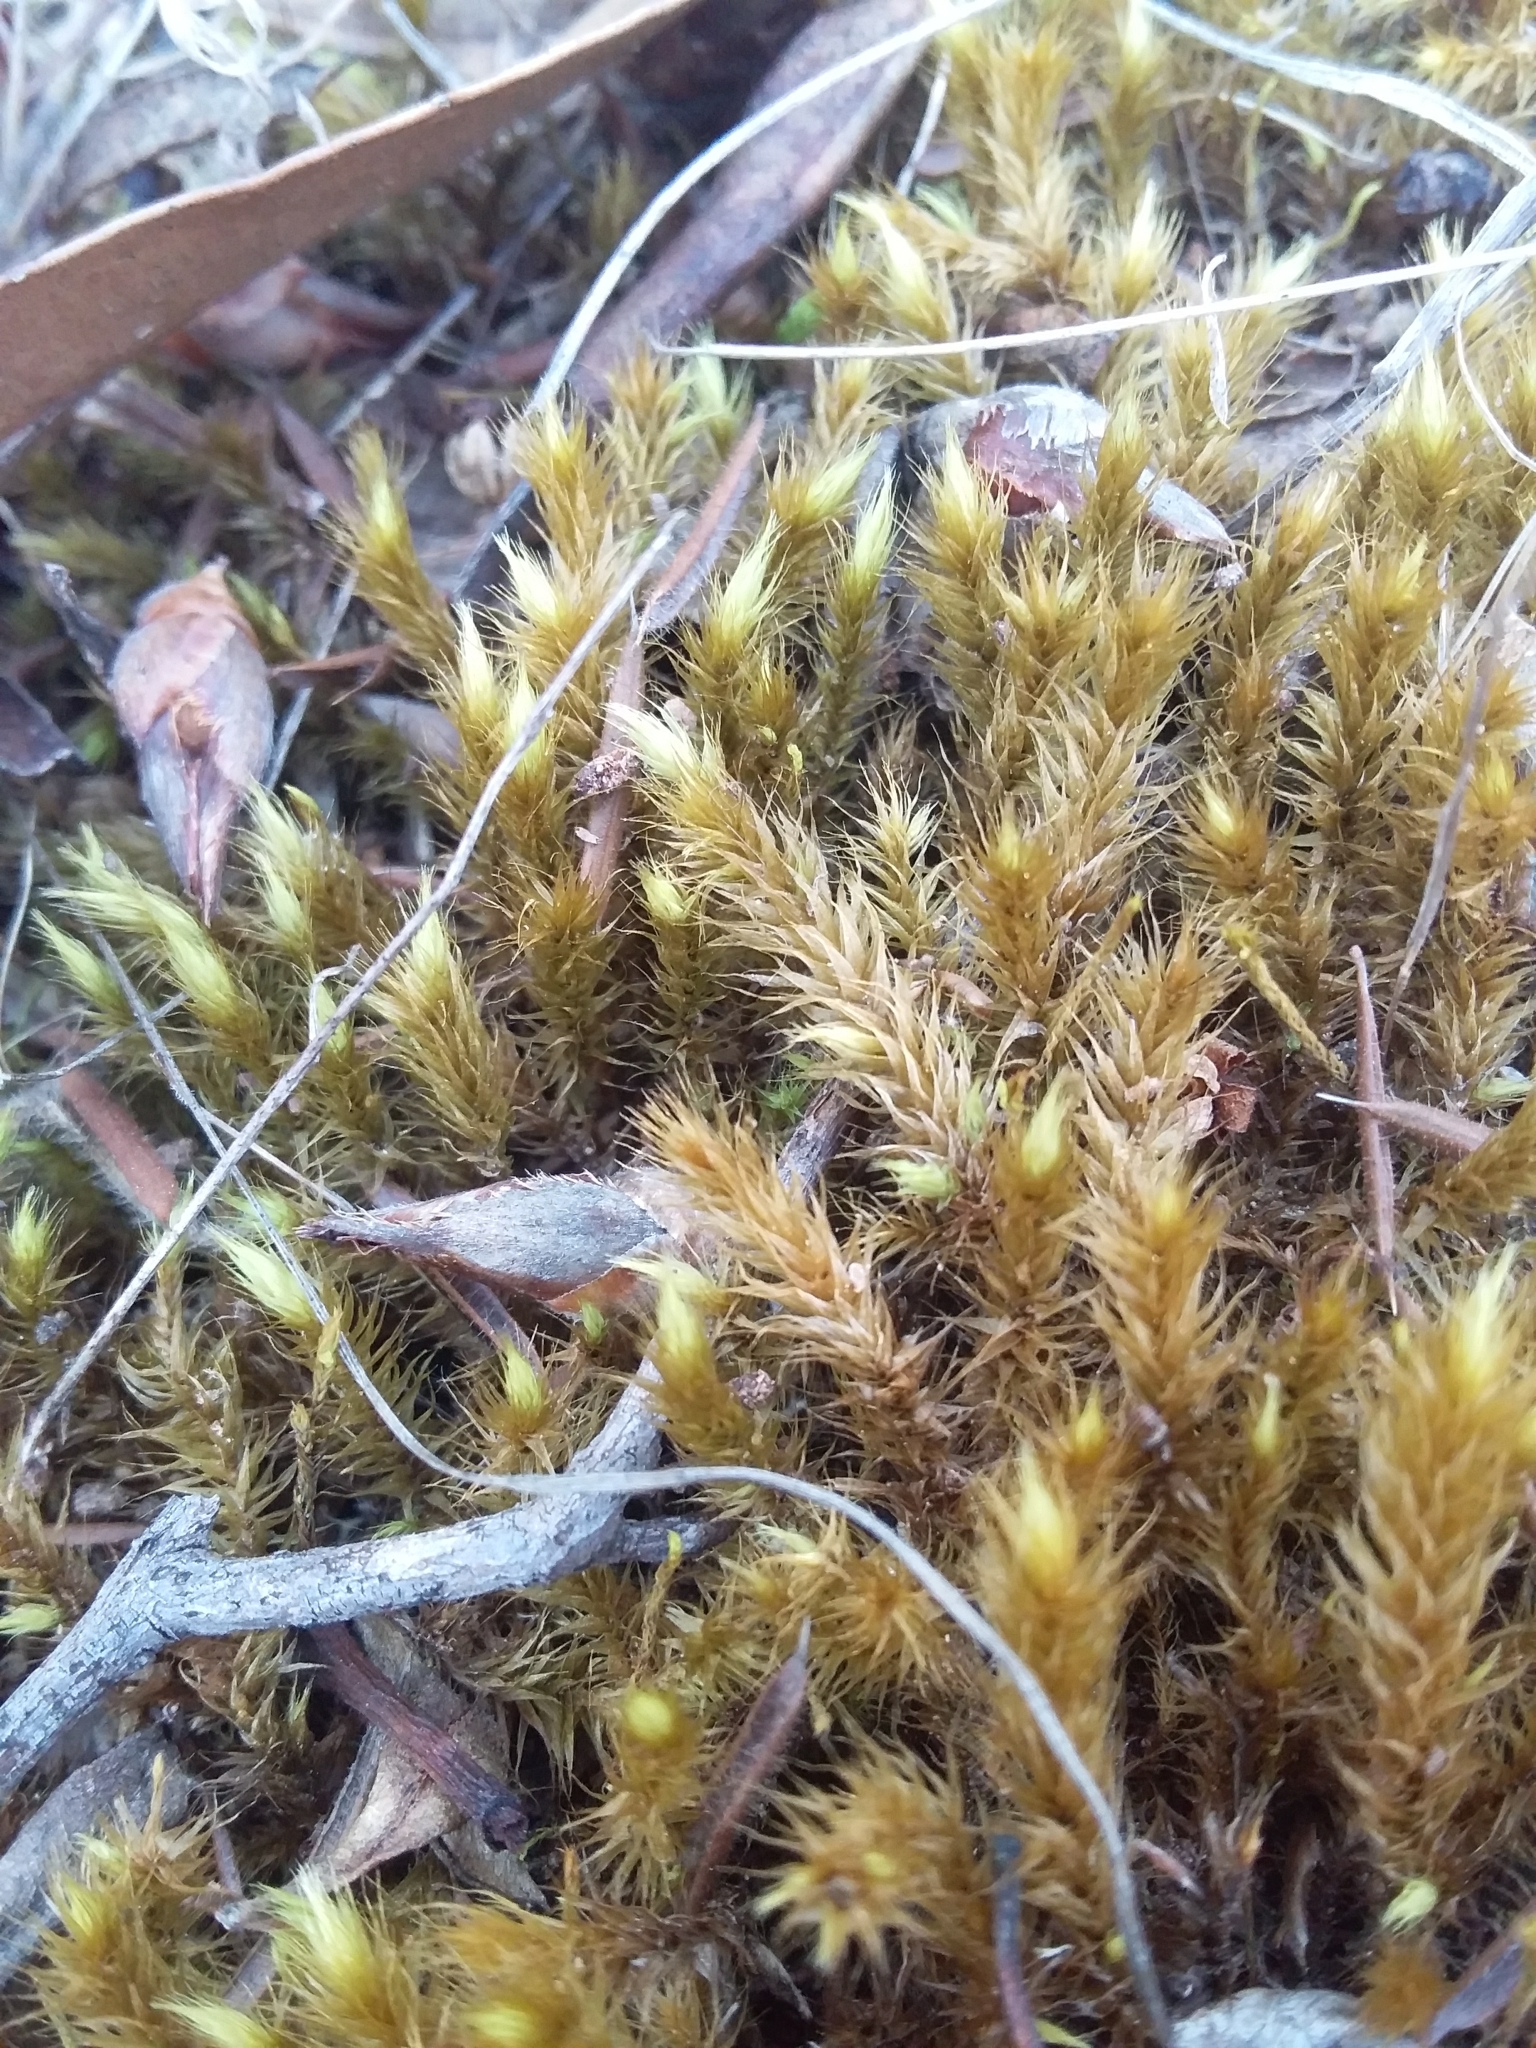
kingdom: Plantae
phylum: Bryophyta
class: Bryopsida
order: Bartramiales
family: Bartramiaceae
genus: Breutelia
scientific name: Breutelia affinis
